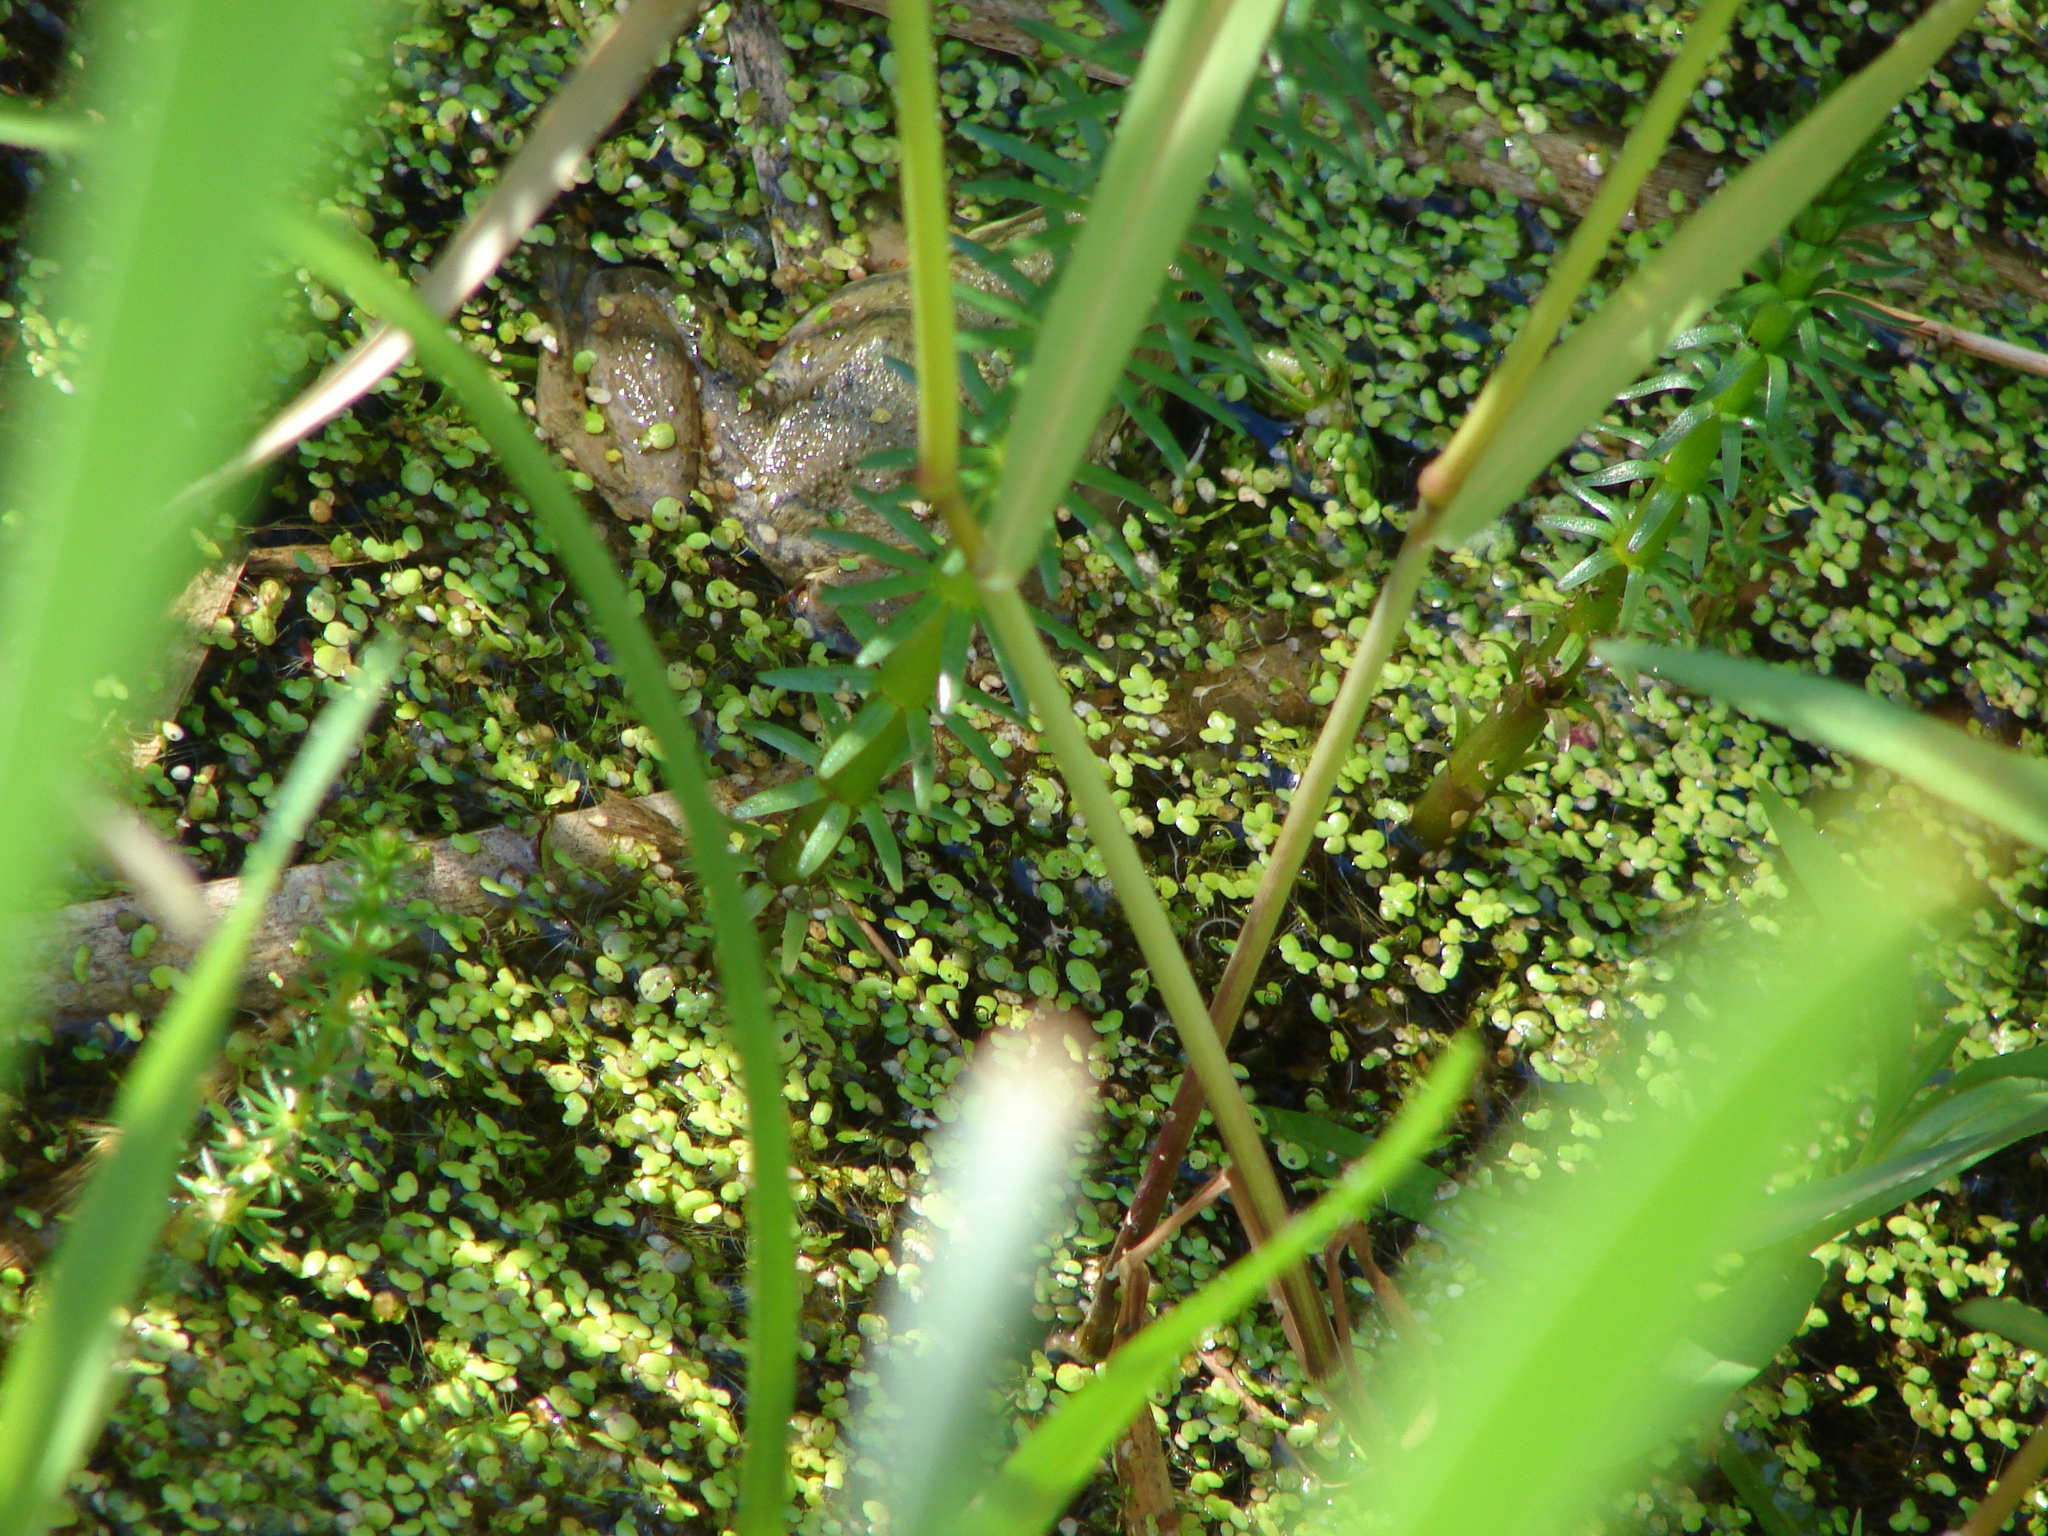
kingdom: Animalia
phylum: Chordata
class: Amphibia
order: Anura
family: Ranidae
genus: Lithobates
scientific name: Lithobates catesbeianus
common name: American bullfrog
